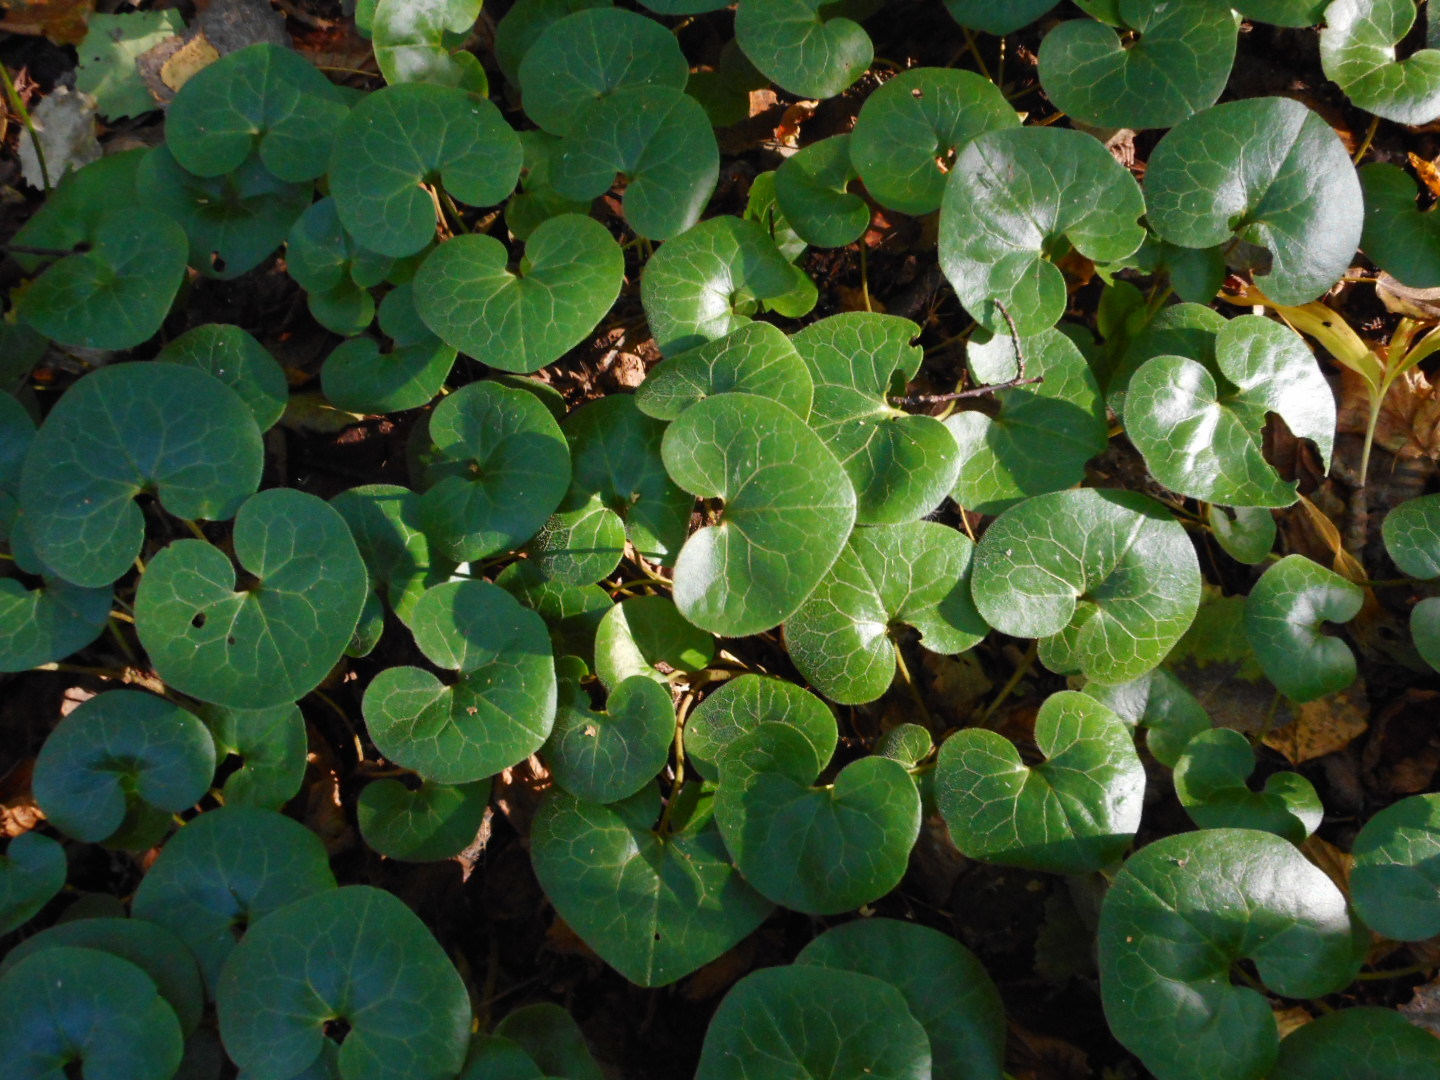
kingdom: Plantae
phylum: Tracheophyta
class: Magnoliopsida
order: Piperales
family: Aristolochiaceae
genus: Asarum
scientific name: Asarum europaeum
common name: Asarabacca
